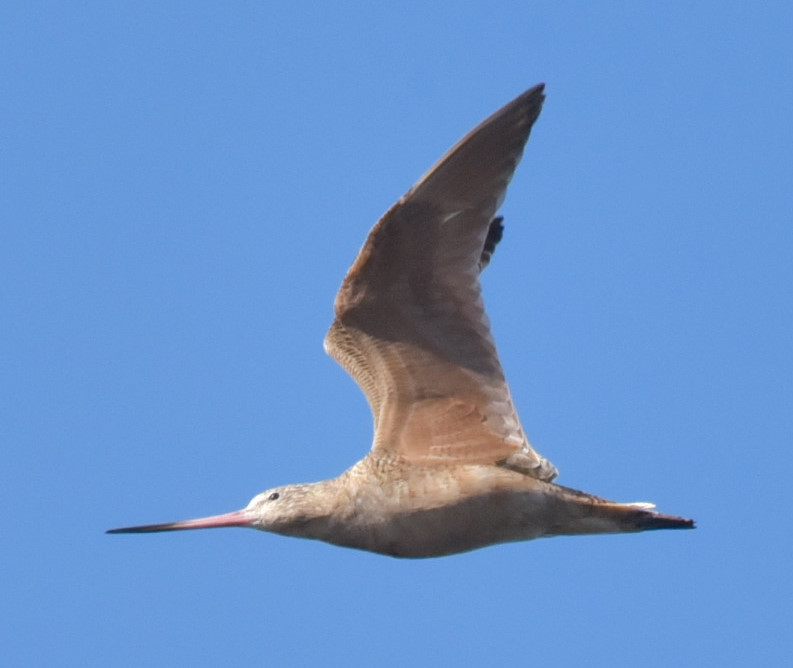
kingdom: Animalia
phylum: Chordata
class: Aves
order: Charadriiformes
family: Scolopacidae
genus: Limosa
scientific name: Limosa fedoa
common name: Marbled godwit
